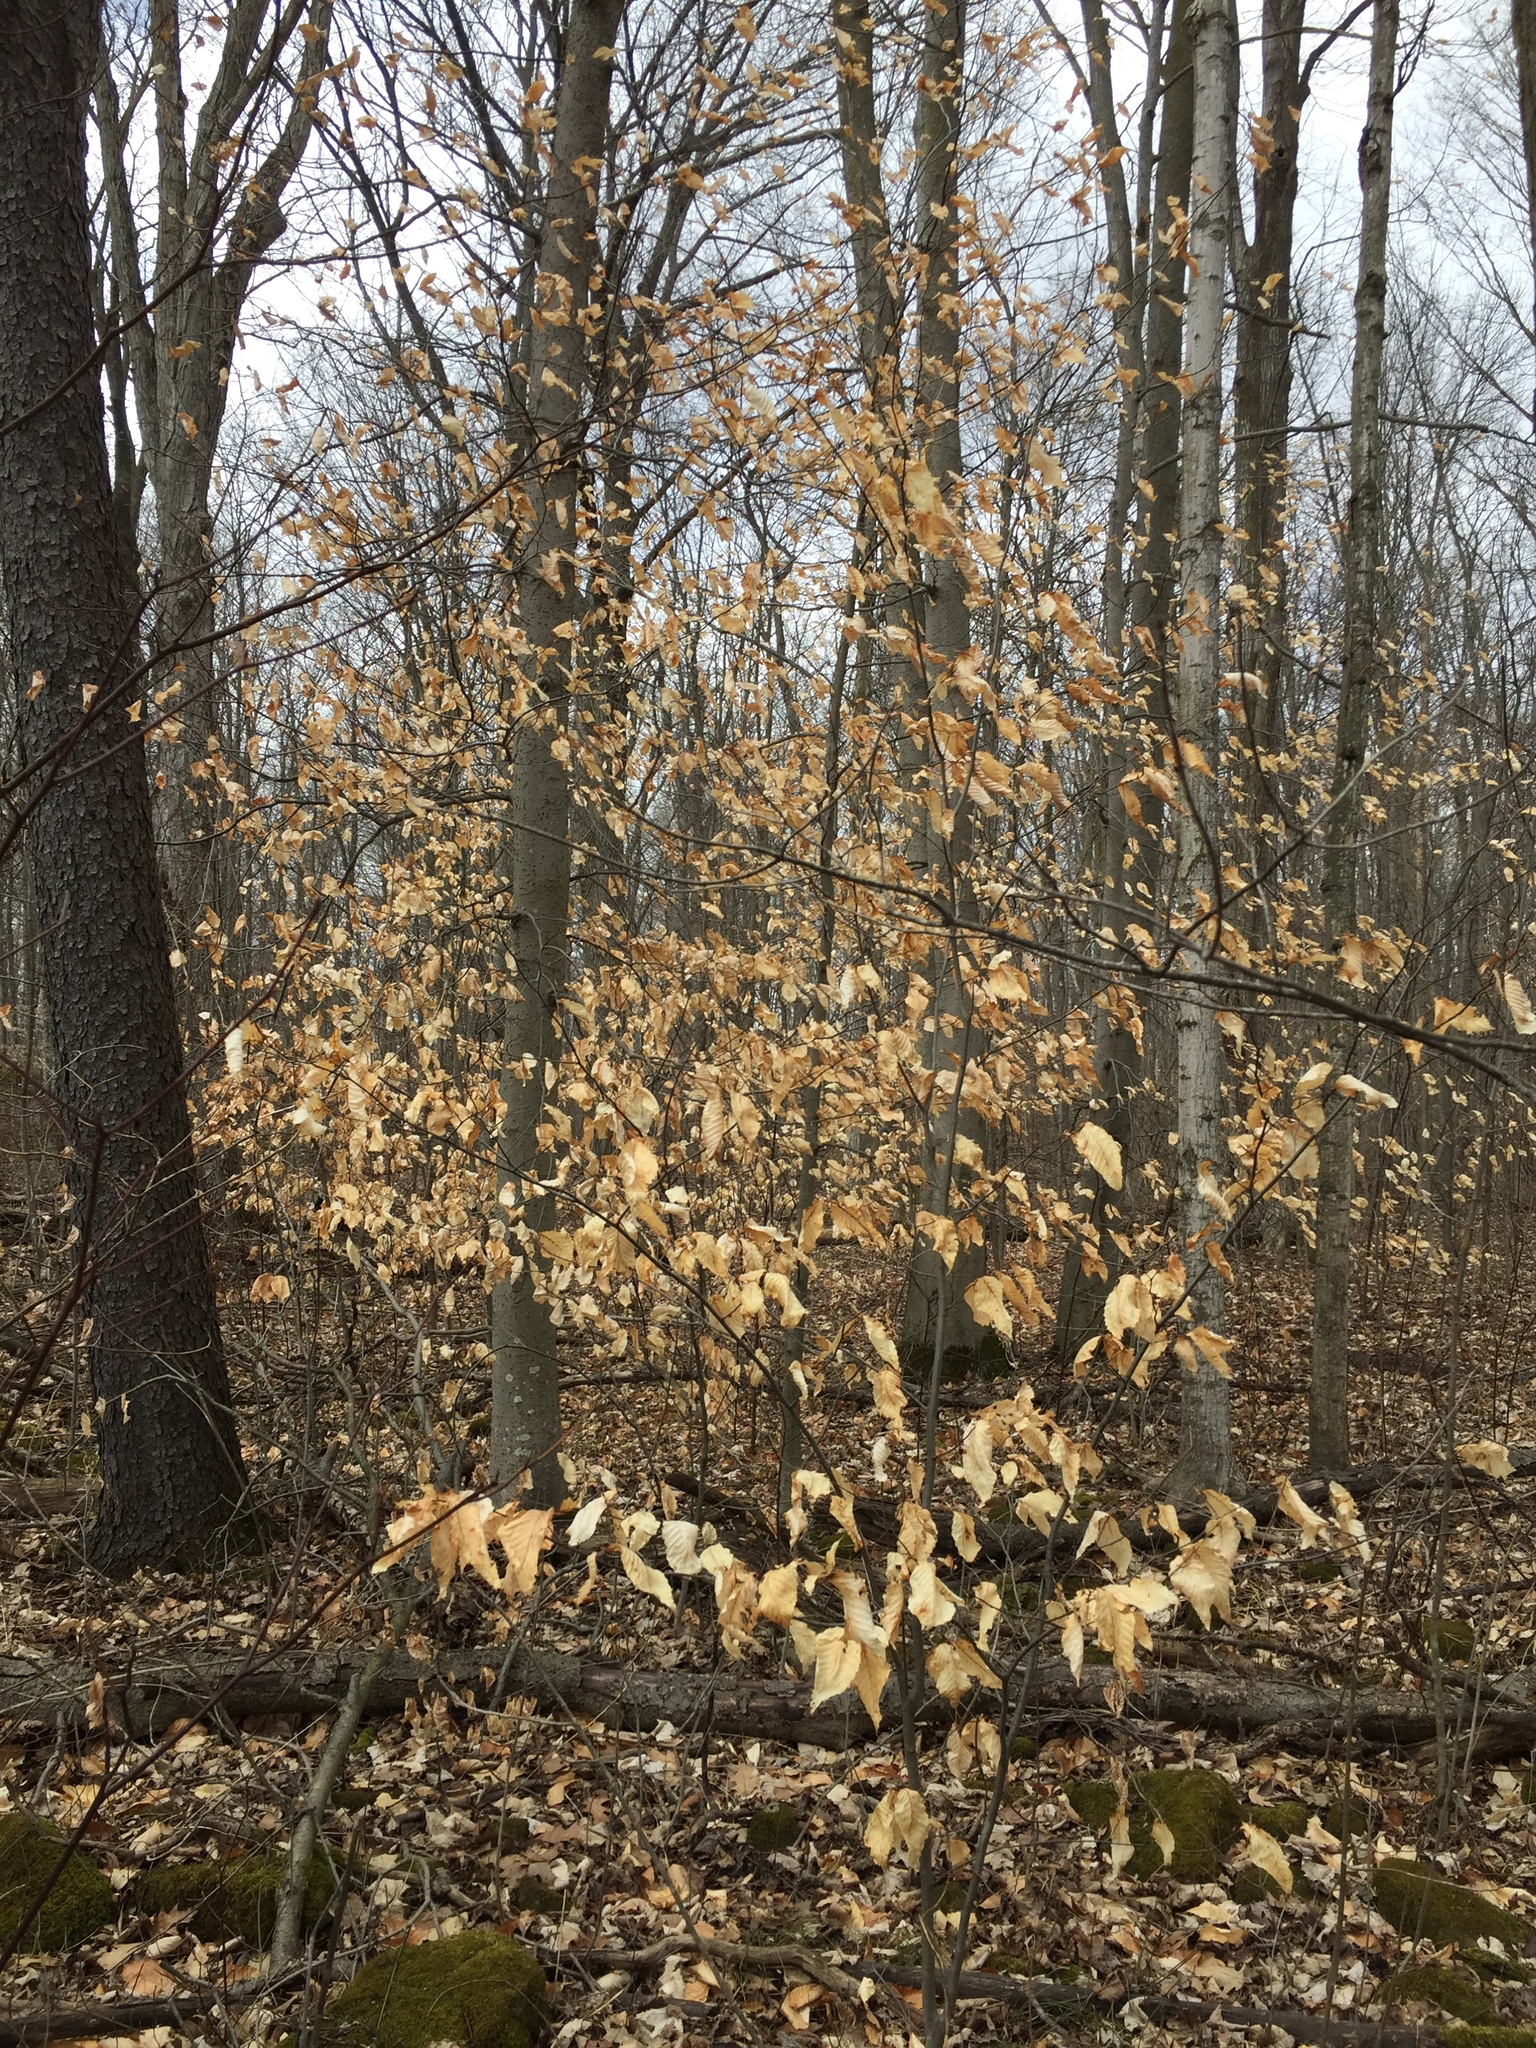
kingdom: Plantae
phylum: Tracheophyta
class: Magnoliopsida
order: Fagales
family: Fagaceae
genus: Fagus
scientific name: Fagus grandifolia
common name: American beech
